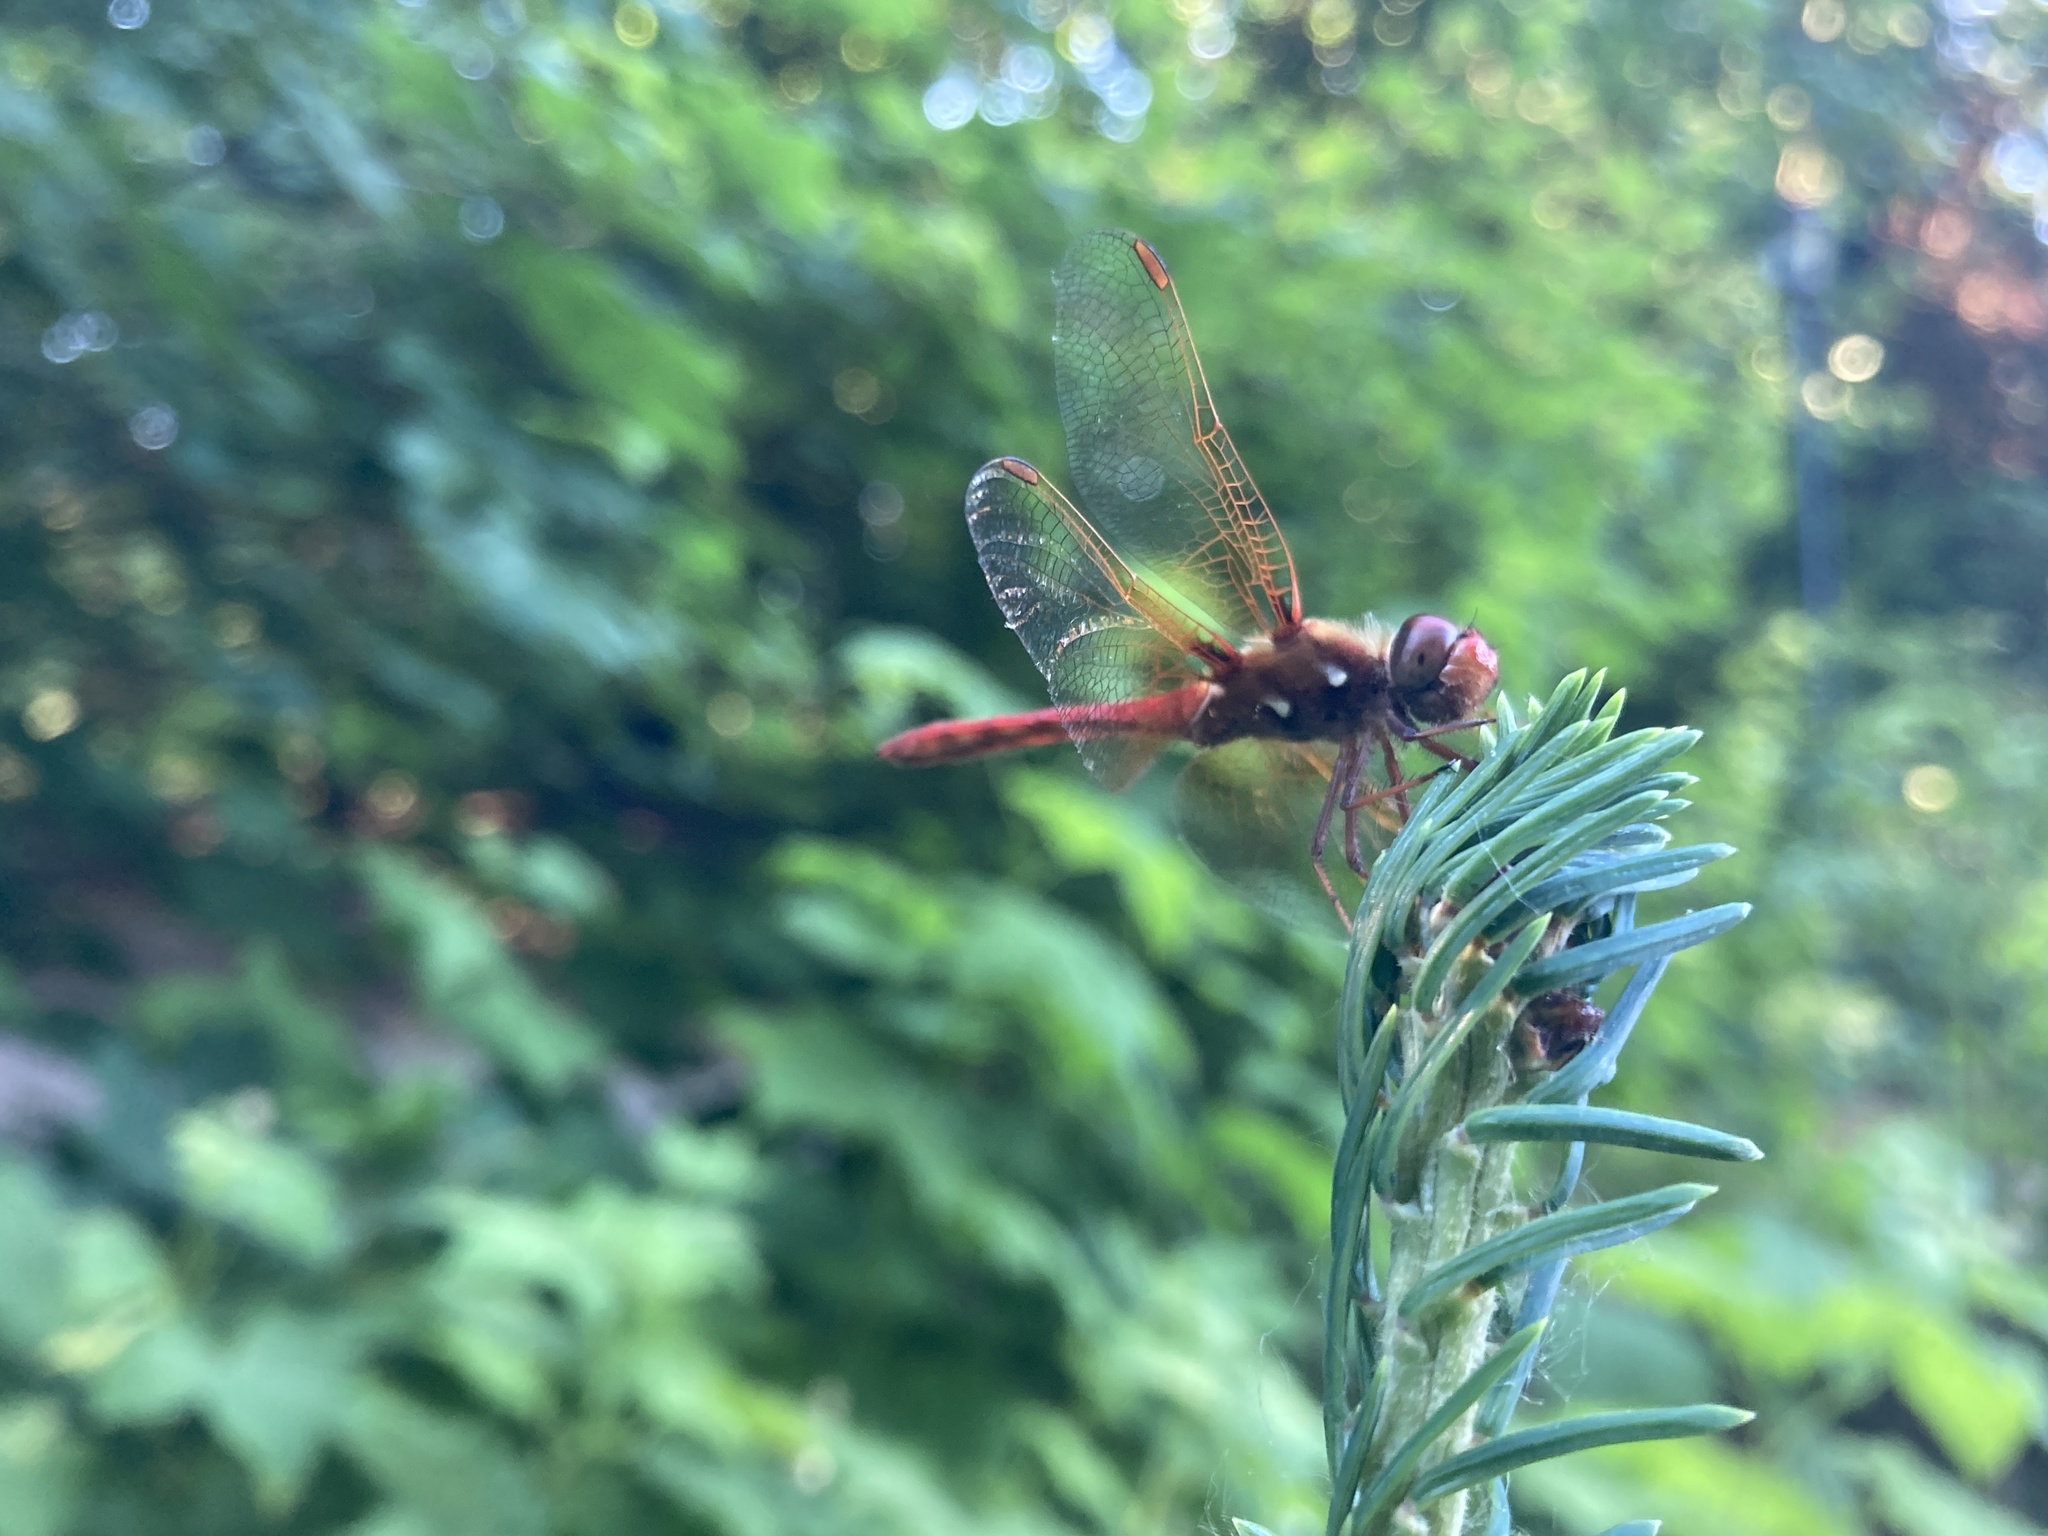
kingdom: Animalia
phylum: Arthropoda
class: Insecta
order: Odonata
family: Libellulidae
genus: Sympetrum
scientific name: Sympetrum illotum
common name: Cardinal meadowhawk
